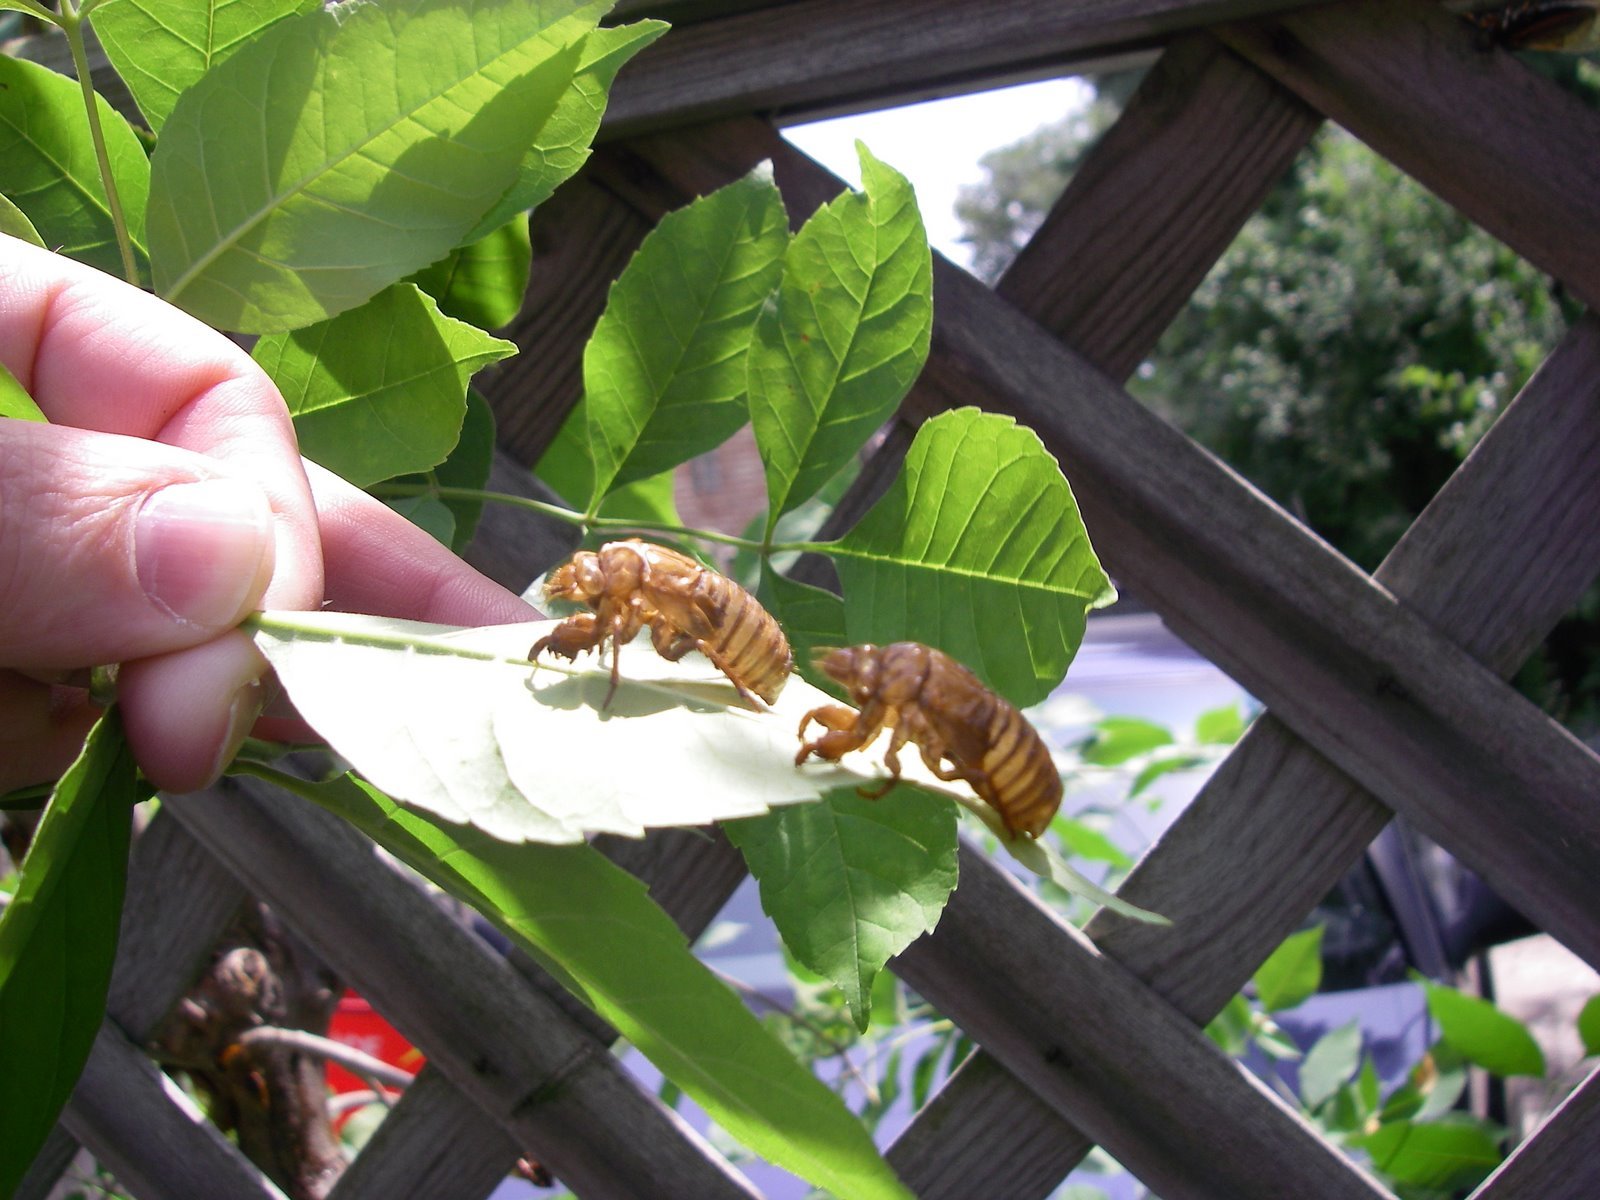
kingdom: Animalia
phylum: Arthropoda
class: Insecta
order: Hemiptera
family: Cicadidae
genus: Magicicada
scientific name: Magicicada
